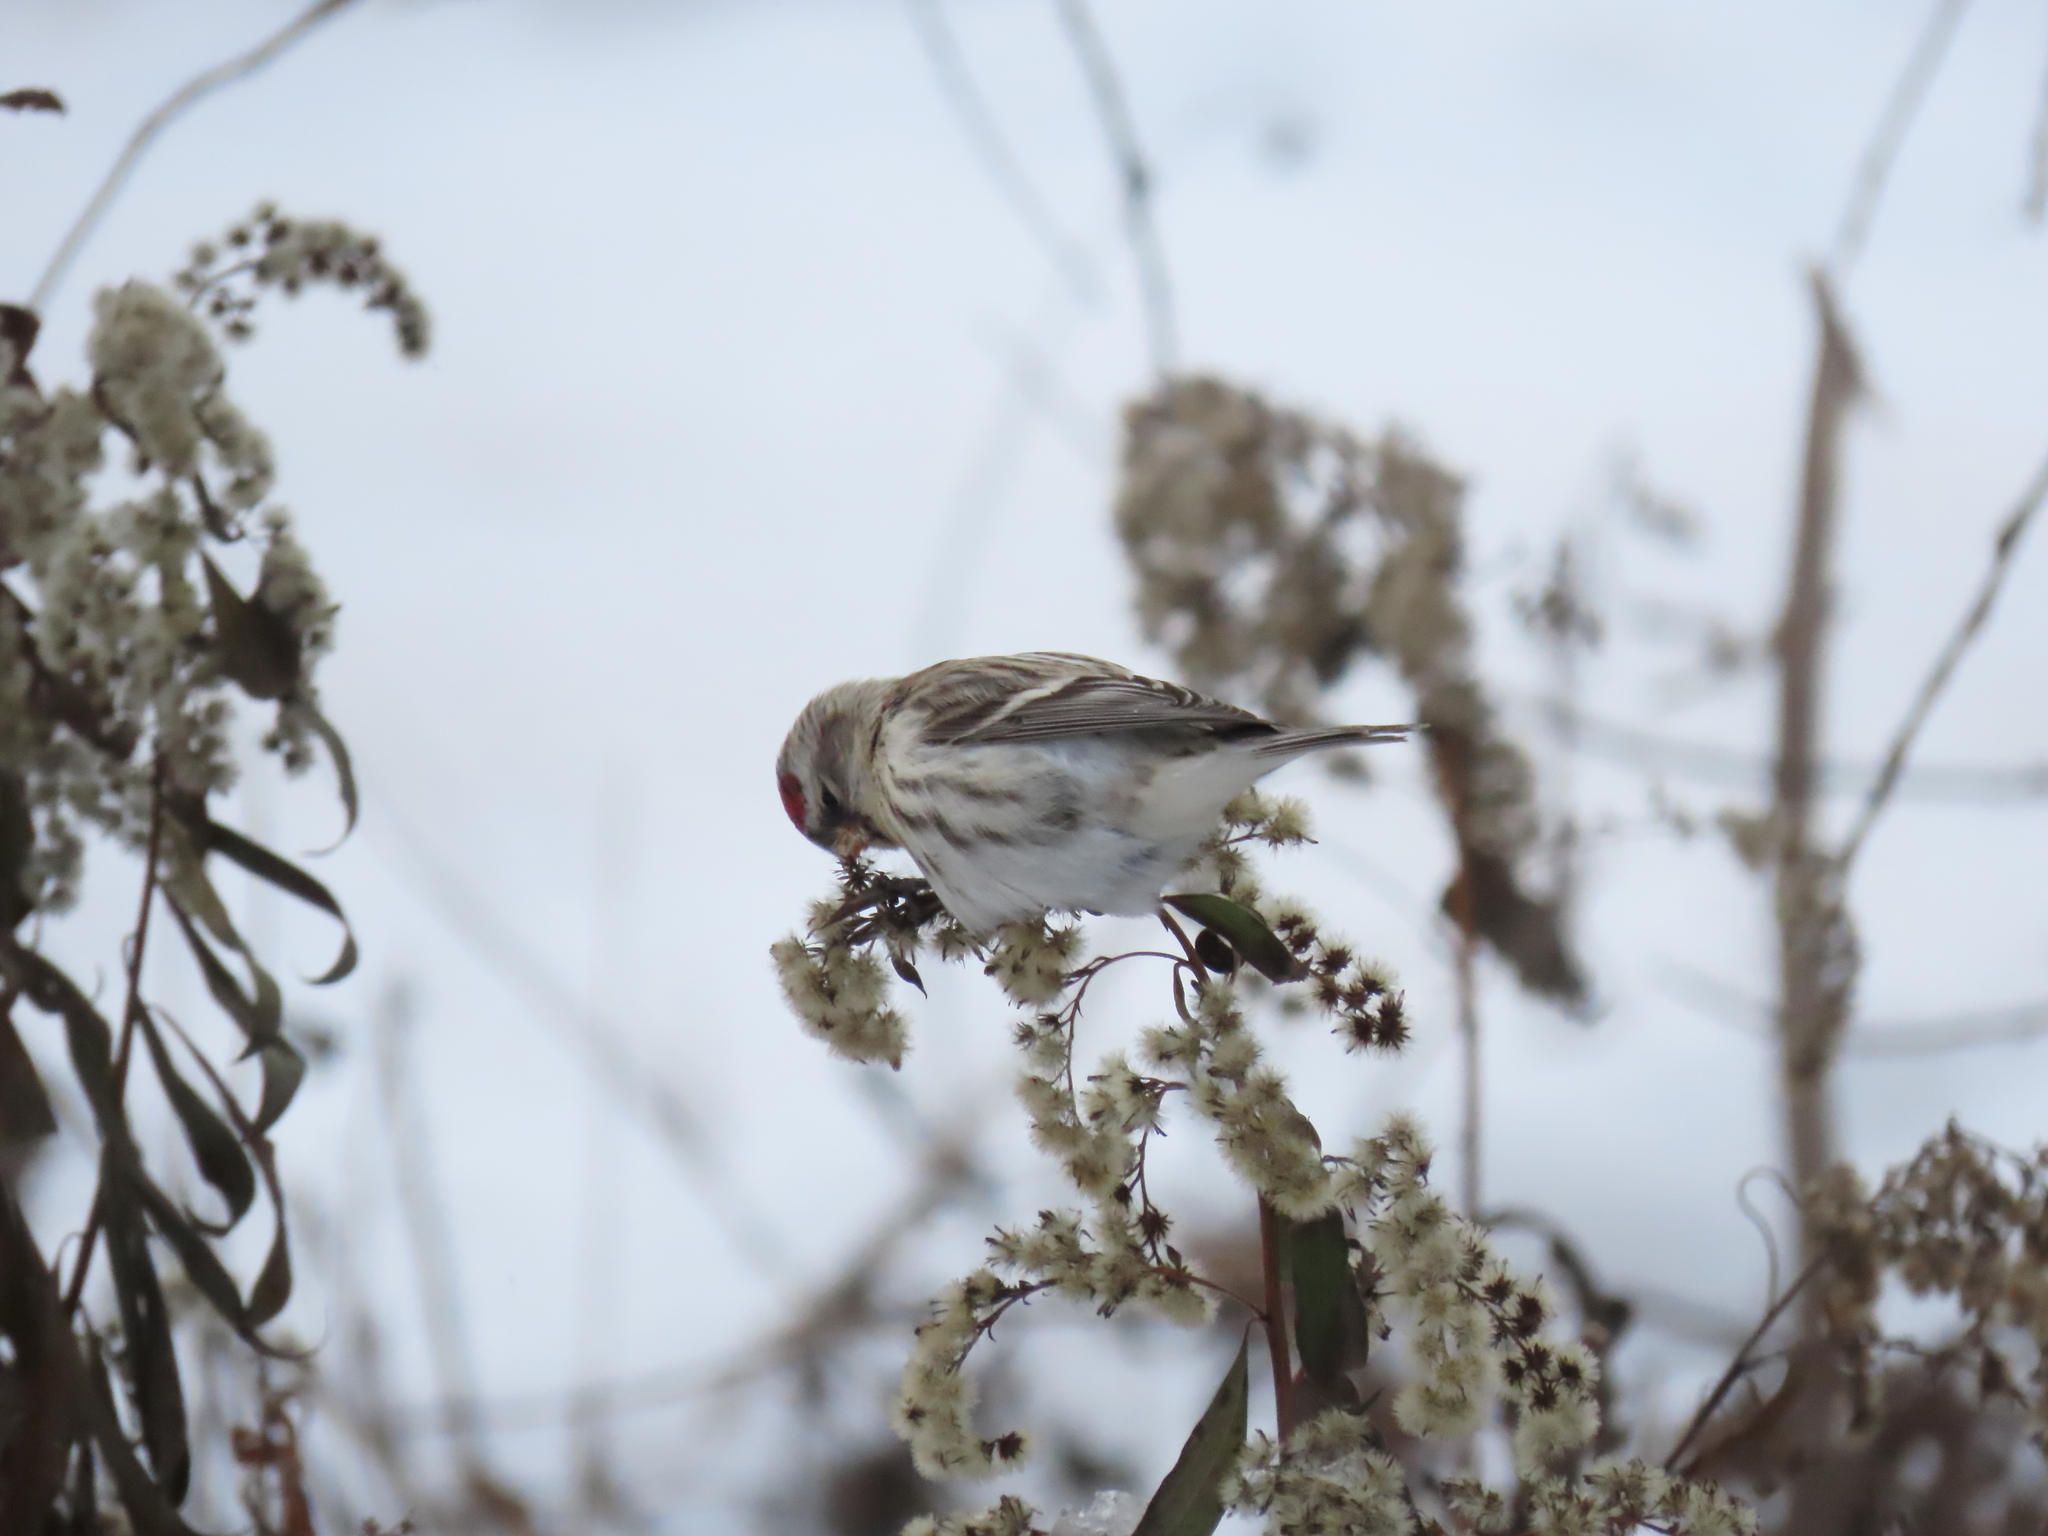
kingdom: Animalia
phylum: Chordata
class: Aves
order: Passeriformes
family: Fringillidae
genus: Acanthis
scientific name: Acanthis flammea
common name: Common redpoll
